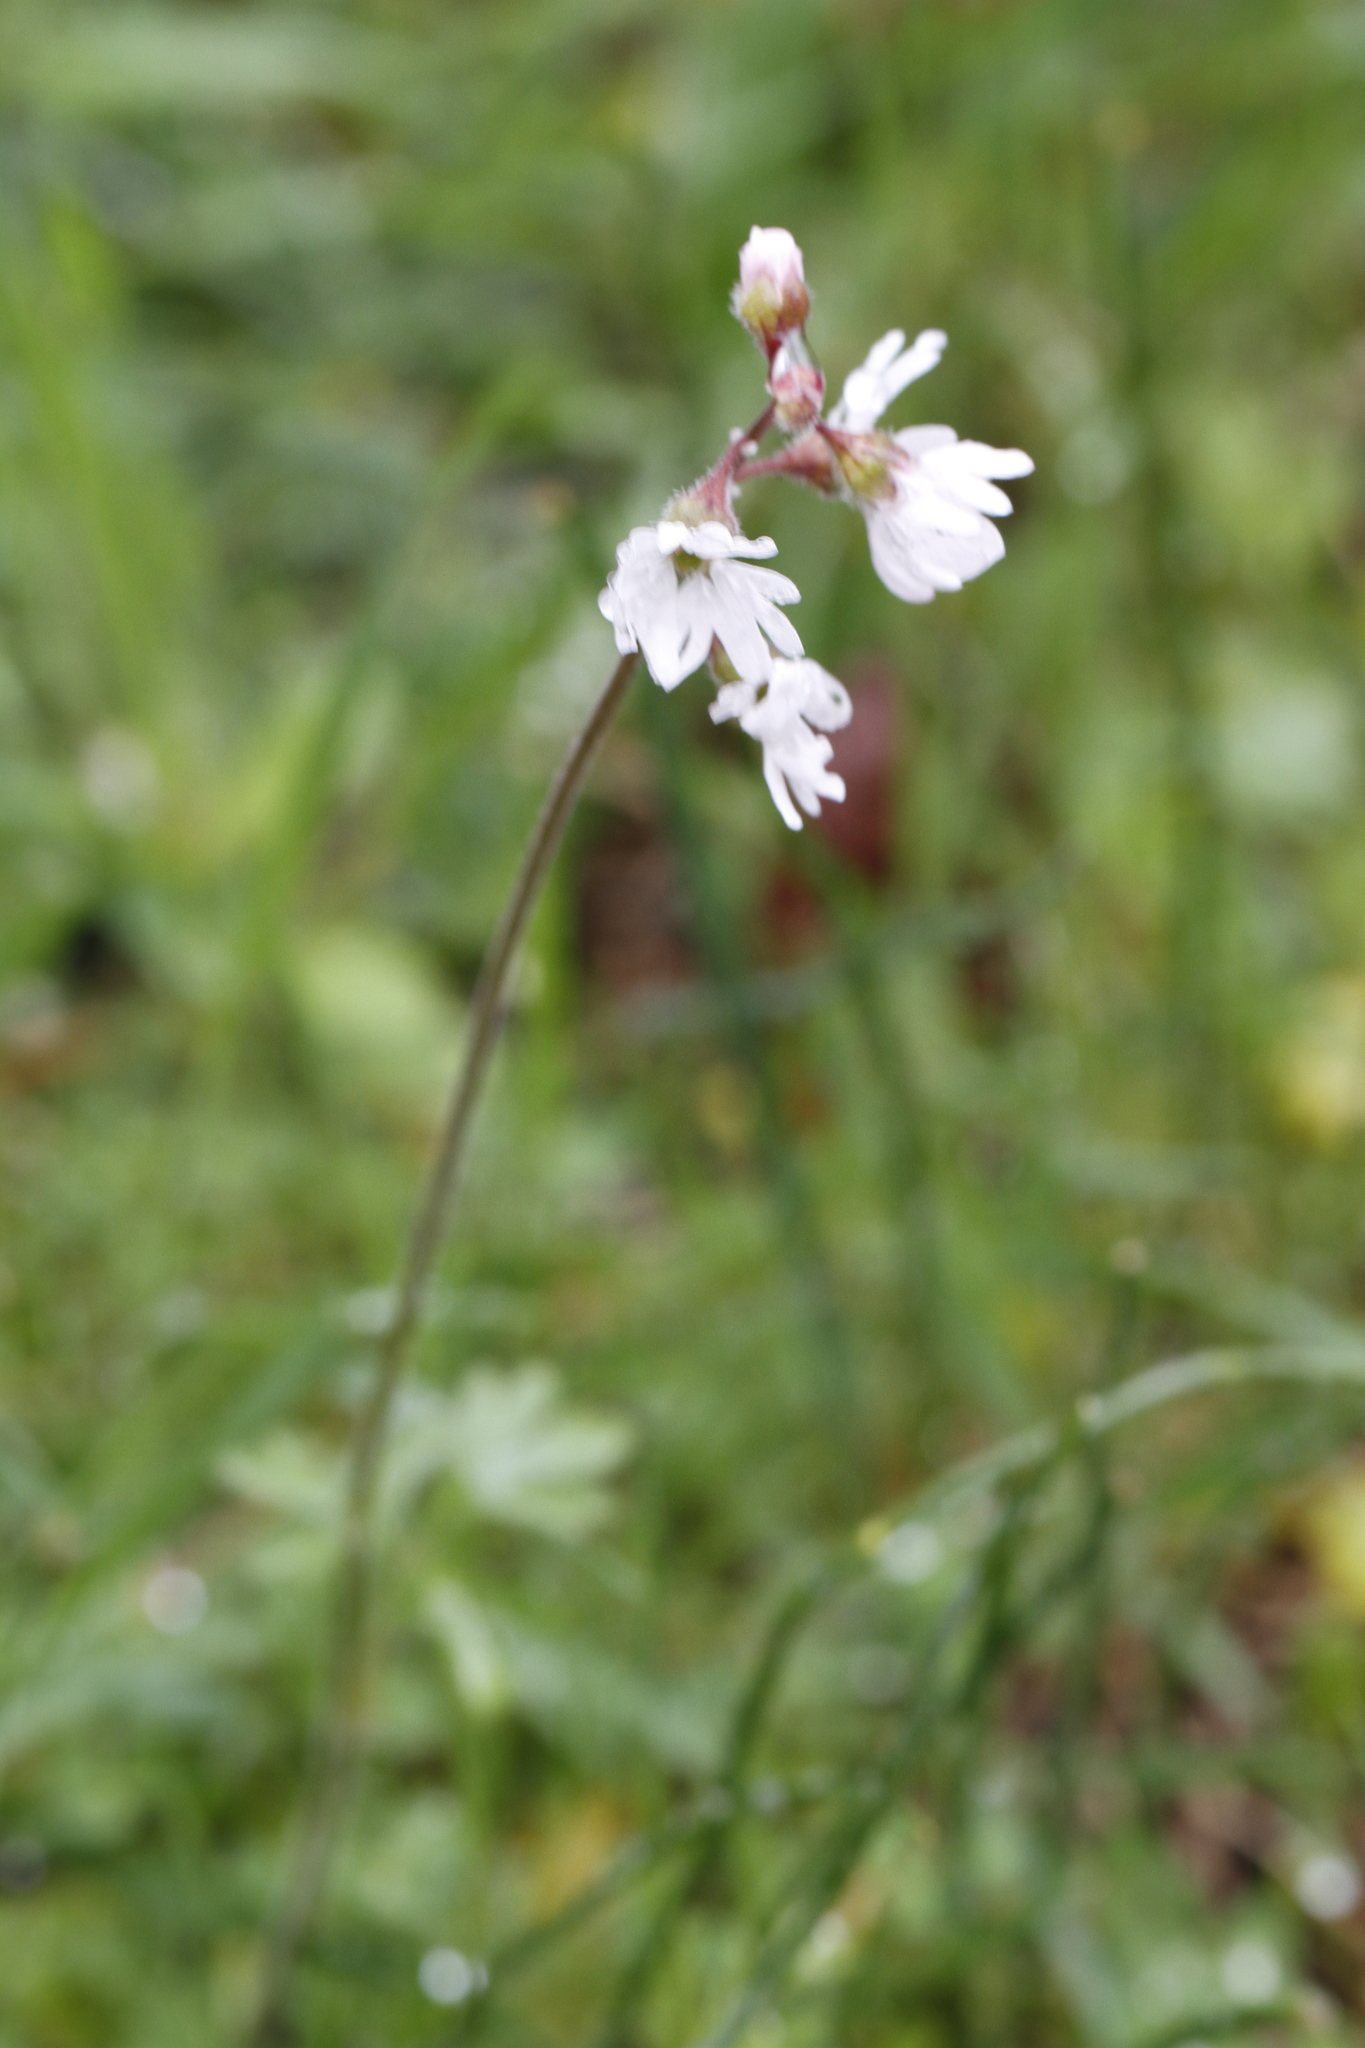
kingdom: Plantae
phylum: Tracheophyta
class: Magnoliopsida
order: Saxifragales
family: Saxifragaceae
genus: Lithophragma
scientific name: Lithophragma parviflorum
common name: Small-flowered fringe-cup
